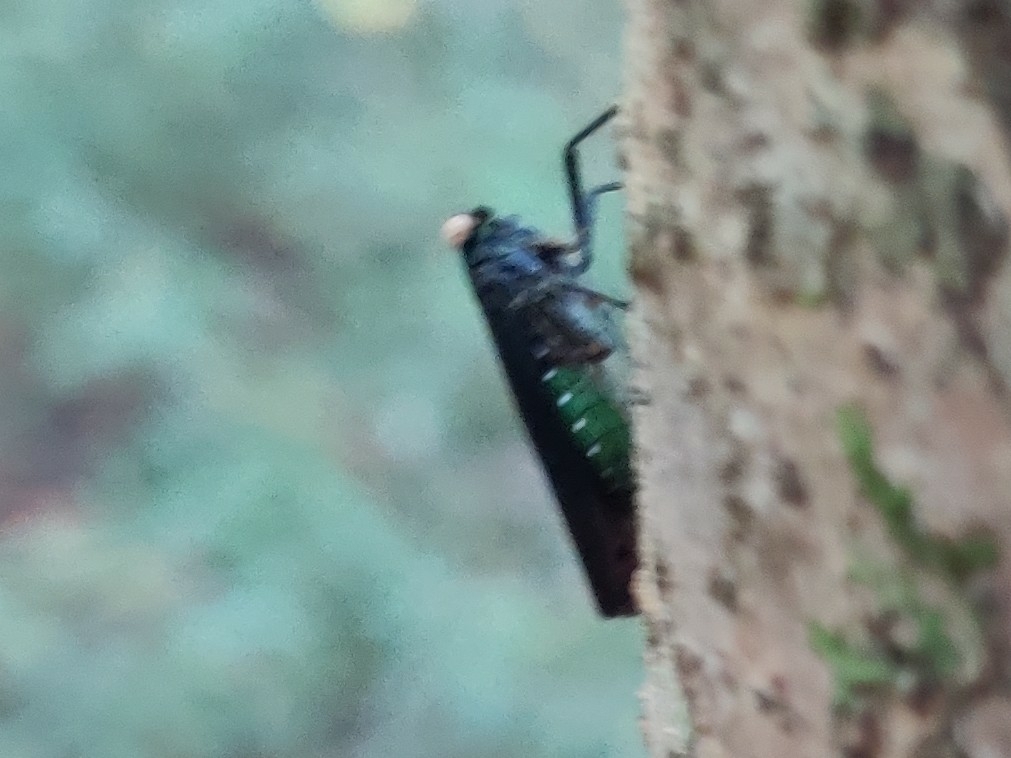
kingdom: Animalia
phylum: Arthropoda
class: Insecta
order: Hemiptera
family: Fulgoridae
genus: Desudaba
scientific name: Desudaba psittacus
